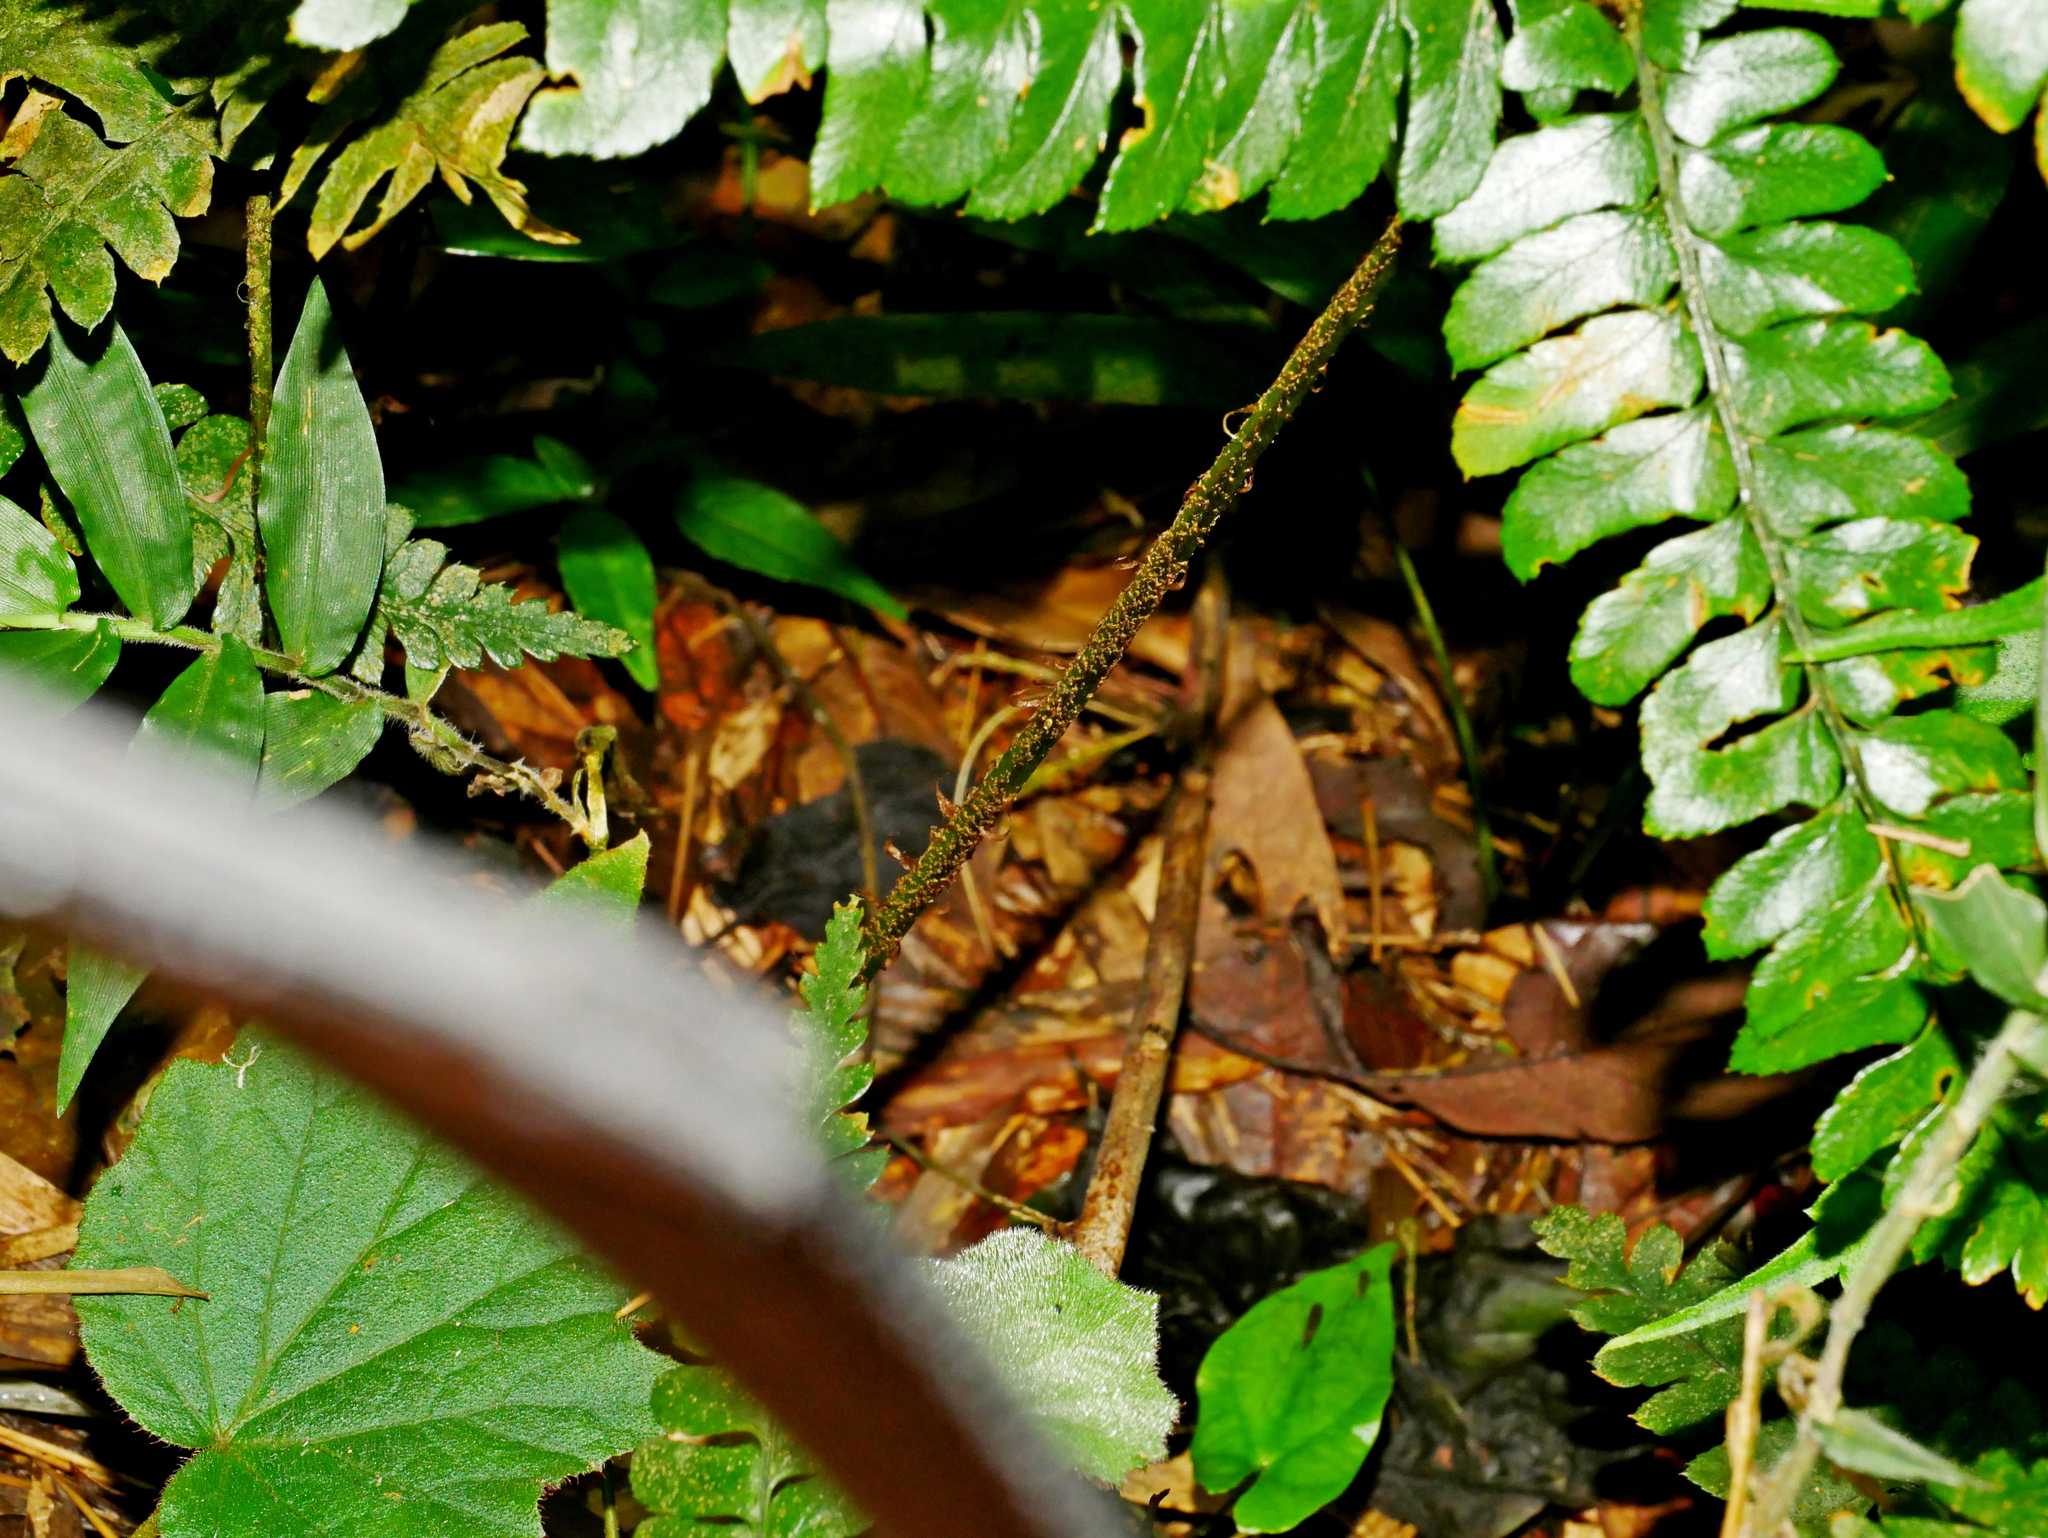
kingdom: Plantae
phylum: Tracheophyta
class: Polypodiopsida
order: Polypodiales
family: Dryopteridaceae
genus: Polystichum
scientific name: Polystichum biaristatum
